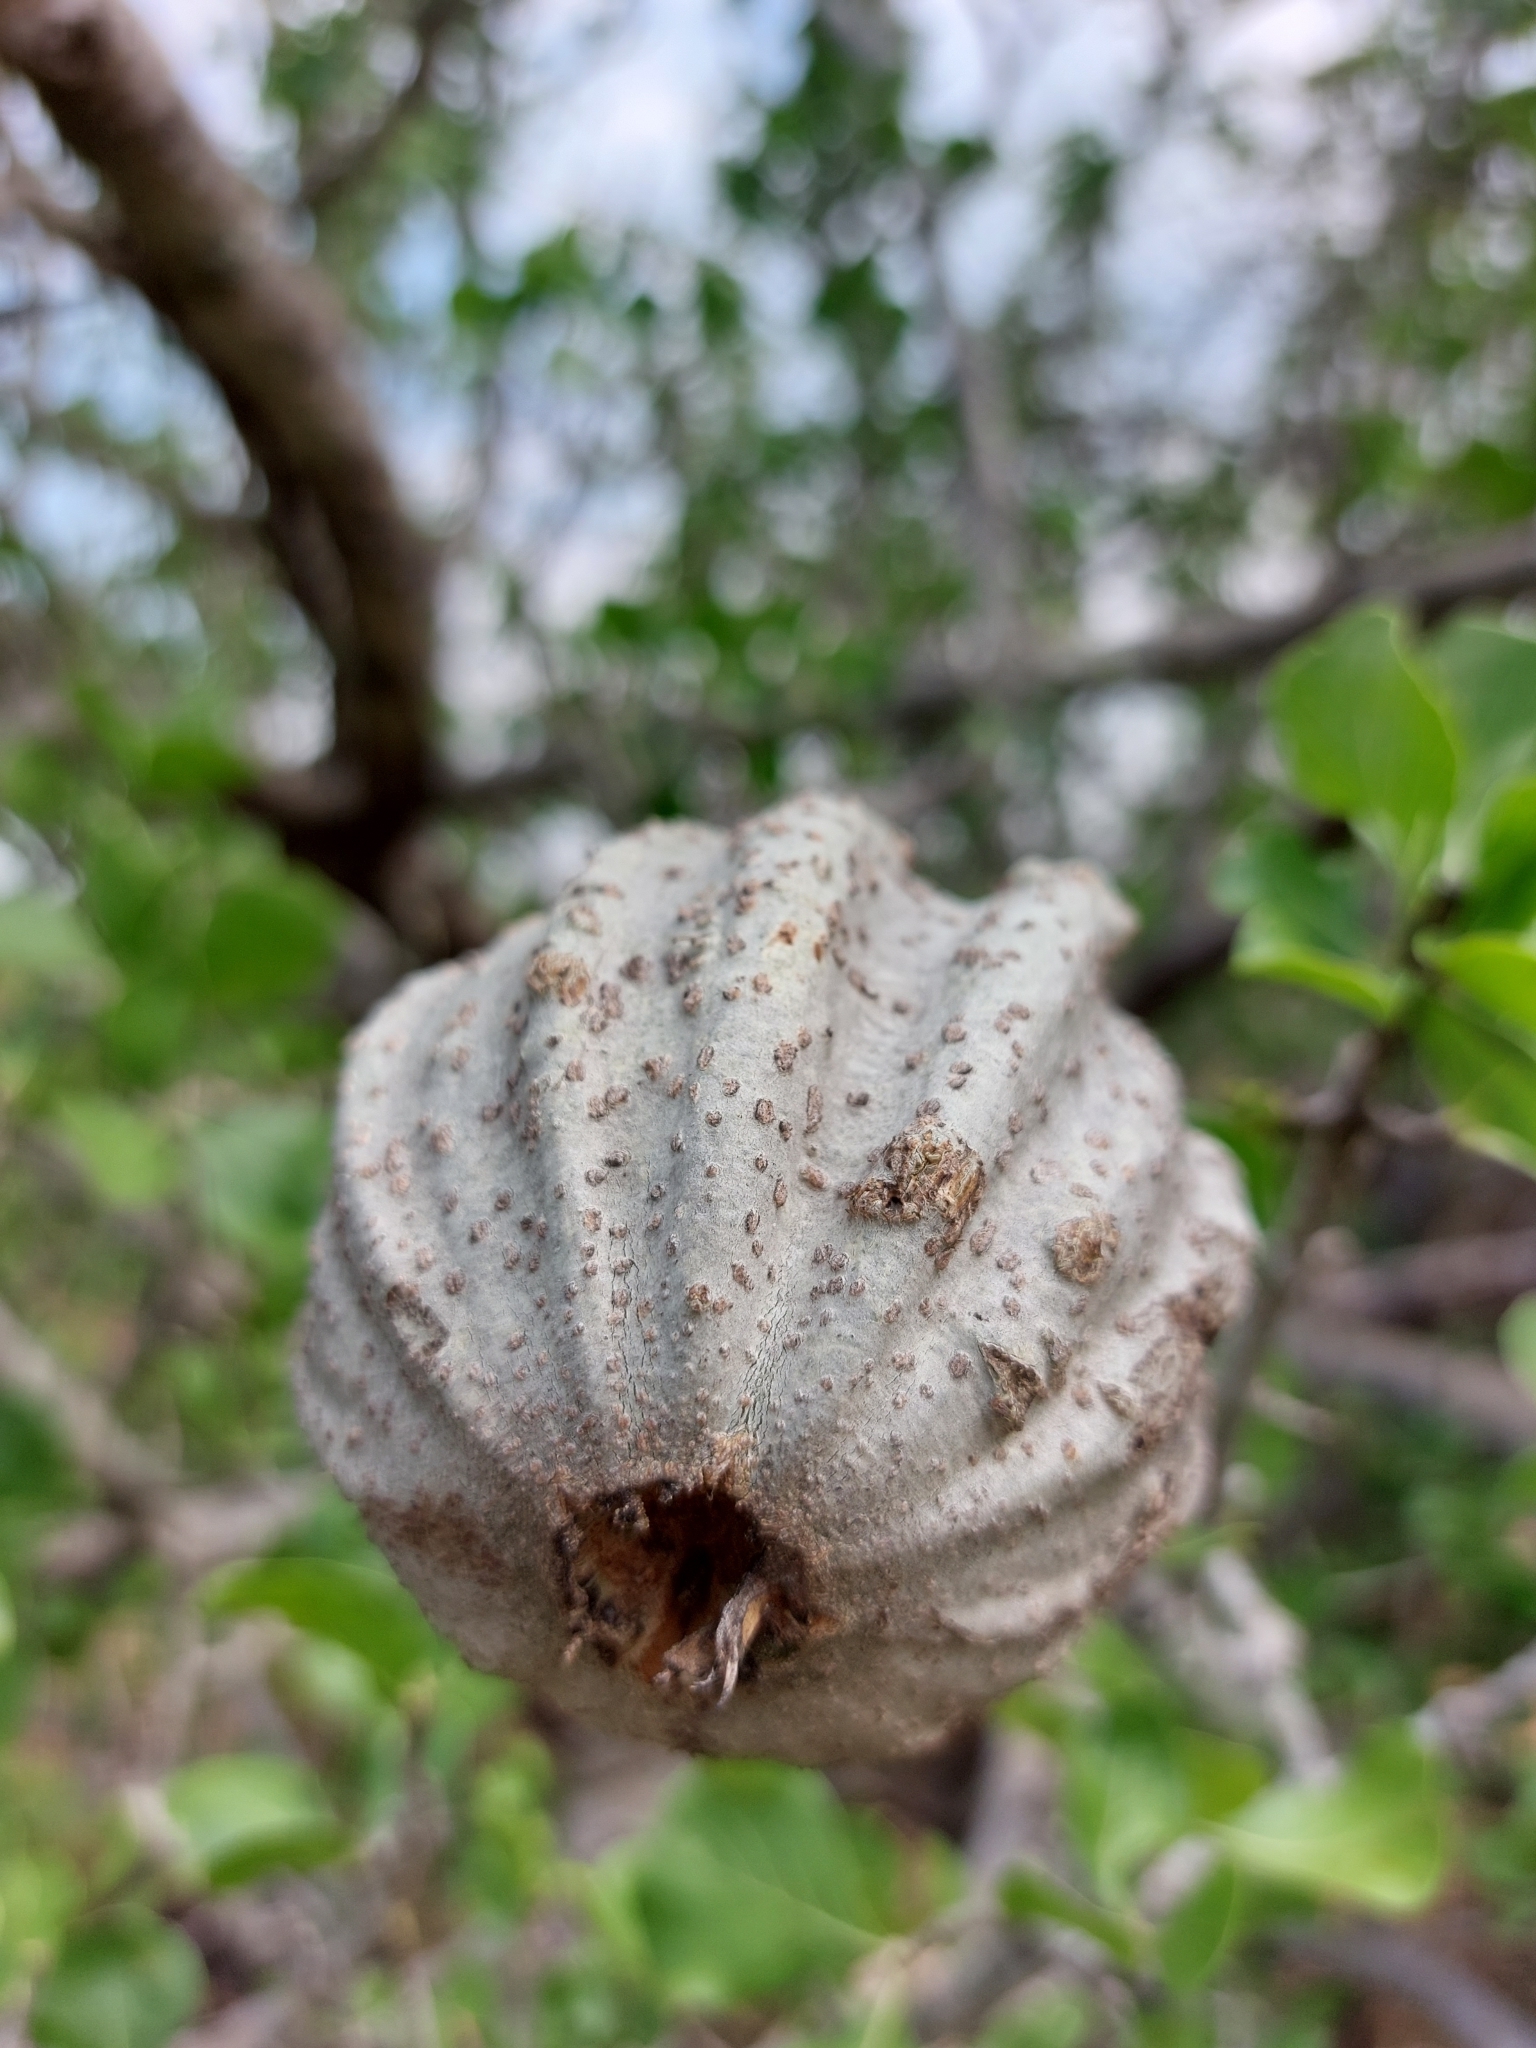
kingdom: Plantae
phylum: Tracheophyta
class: Magnoliopsida
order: Gentianales
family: Rubiaceae
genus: Gardenia
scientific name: Gardenia volkensii
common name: Common gardenia
